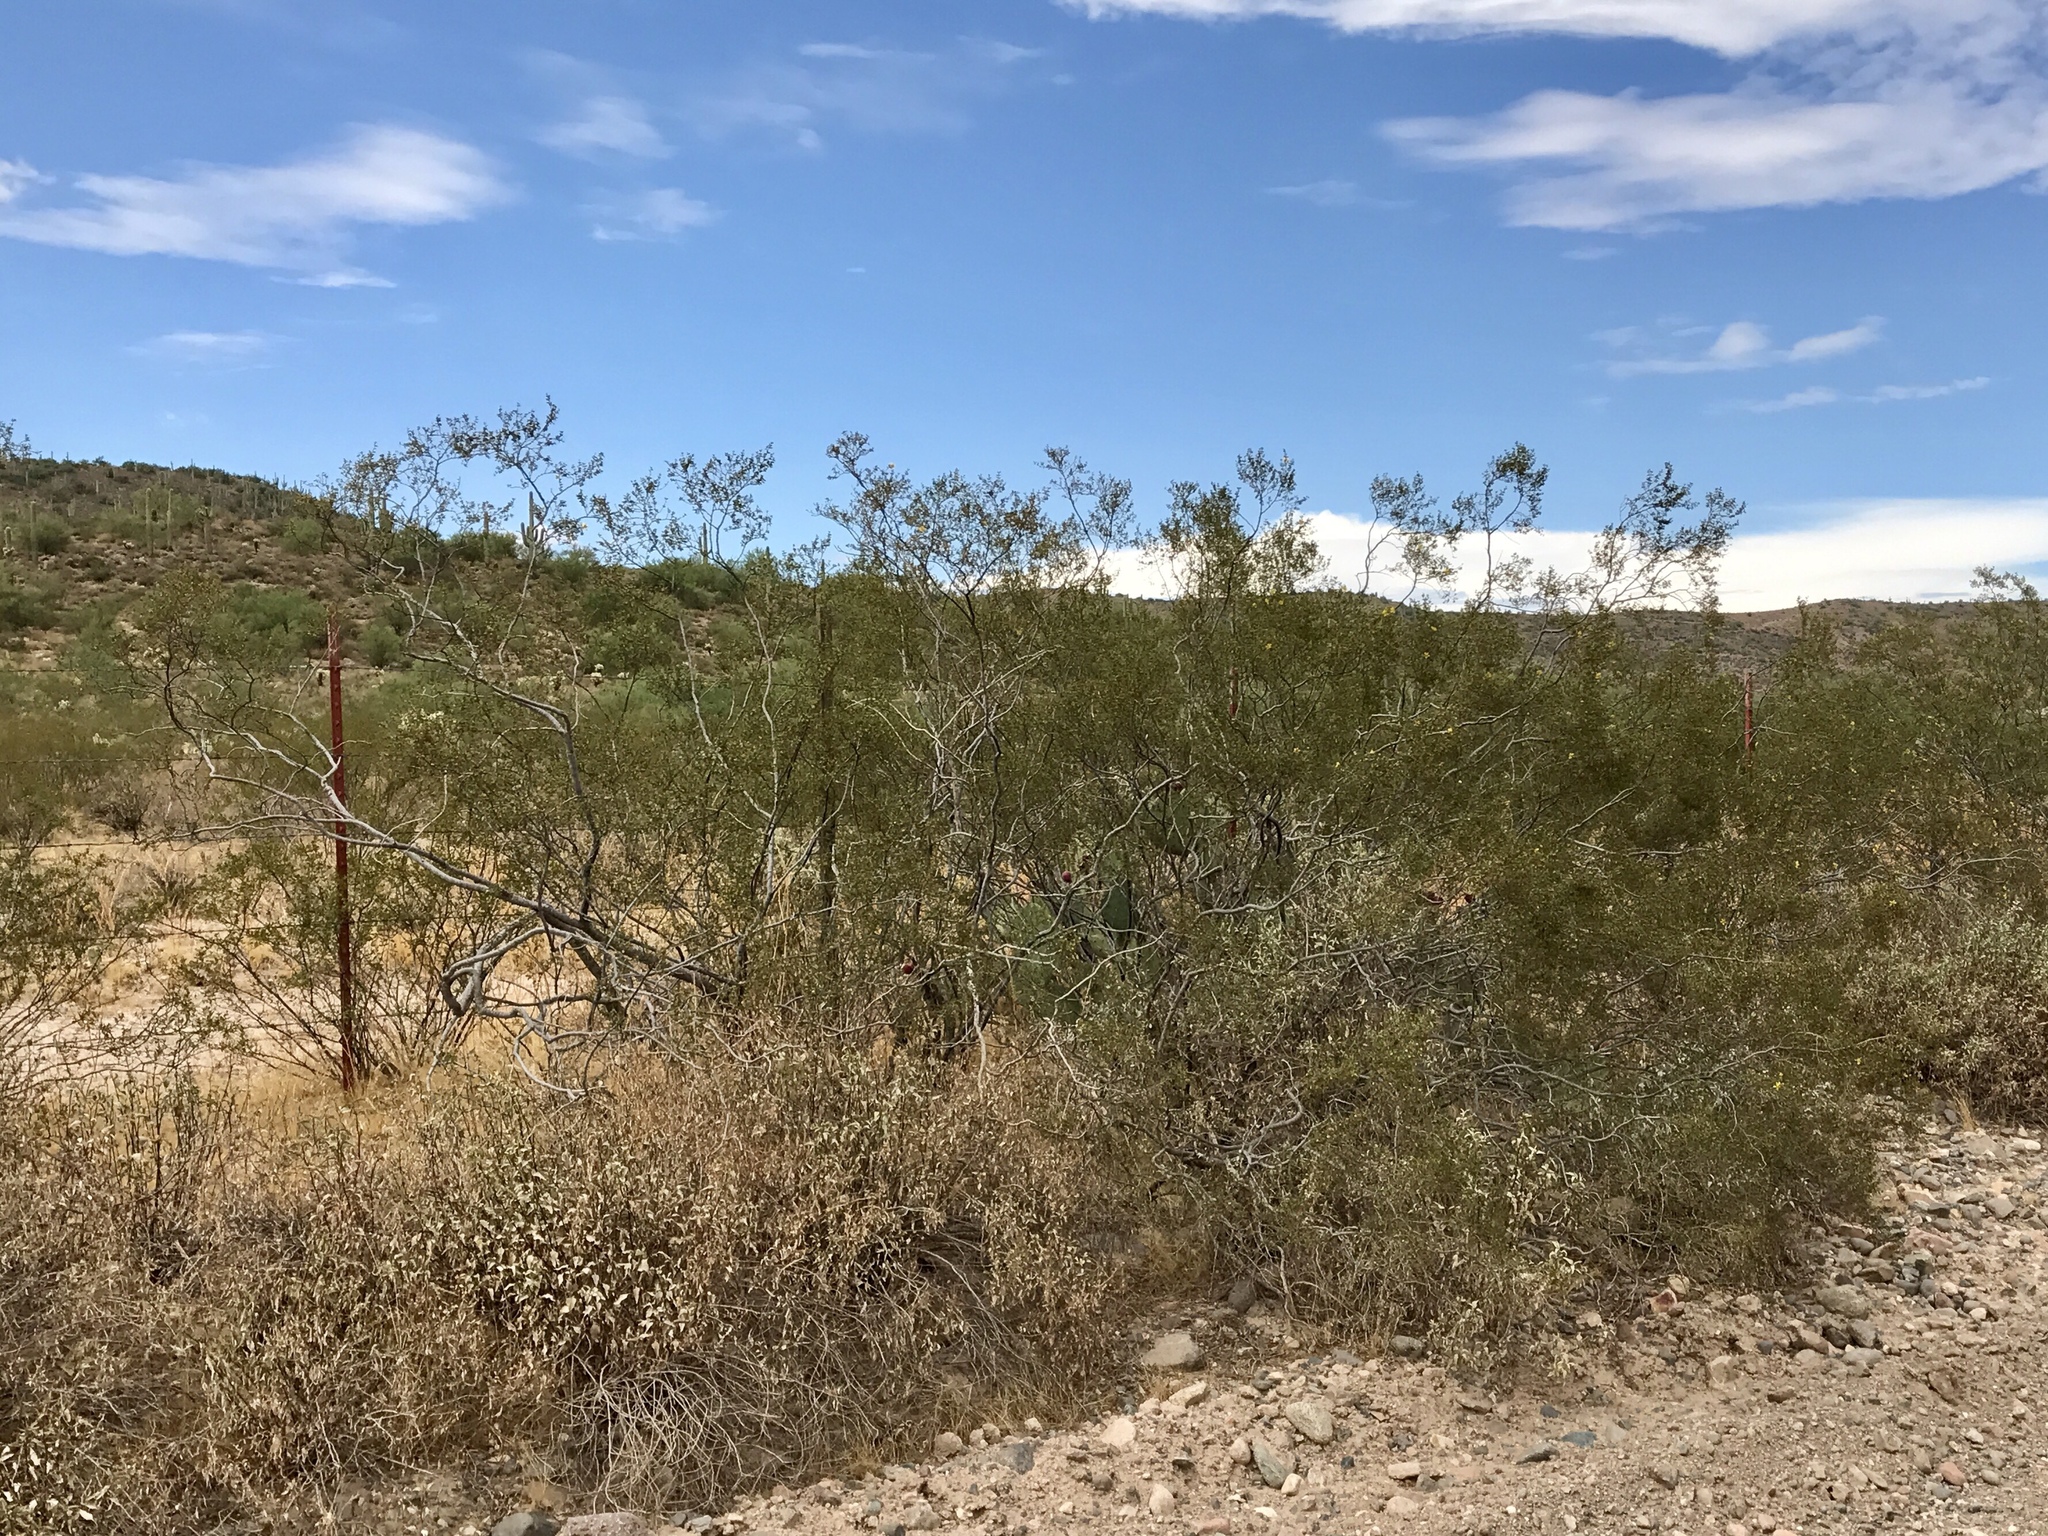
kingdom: Plantae
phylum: Tracheophyta
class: Magnoliopsida
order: Zygophyllales
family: Zygophyllaceae
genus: Larrea
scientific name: Larrea tridentata
